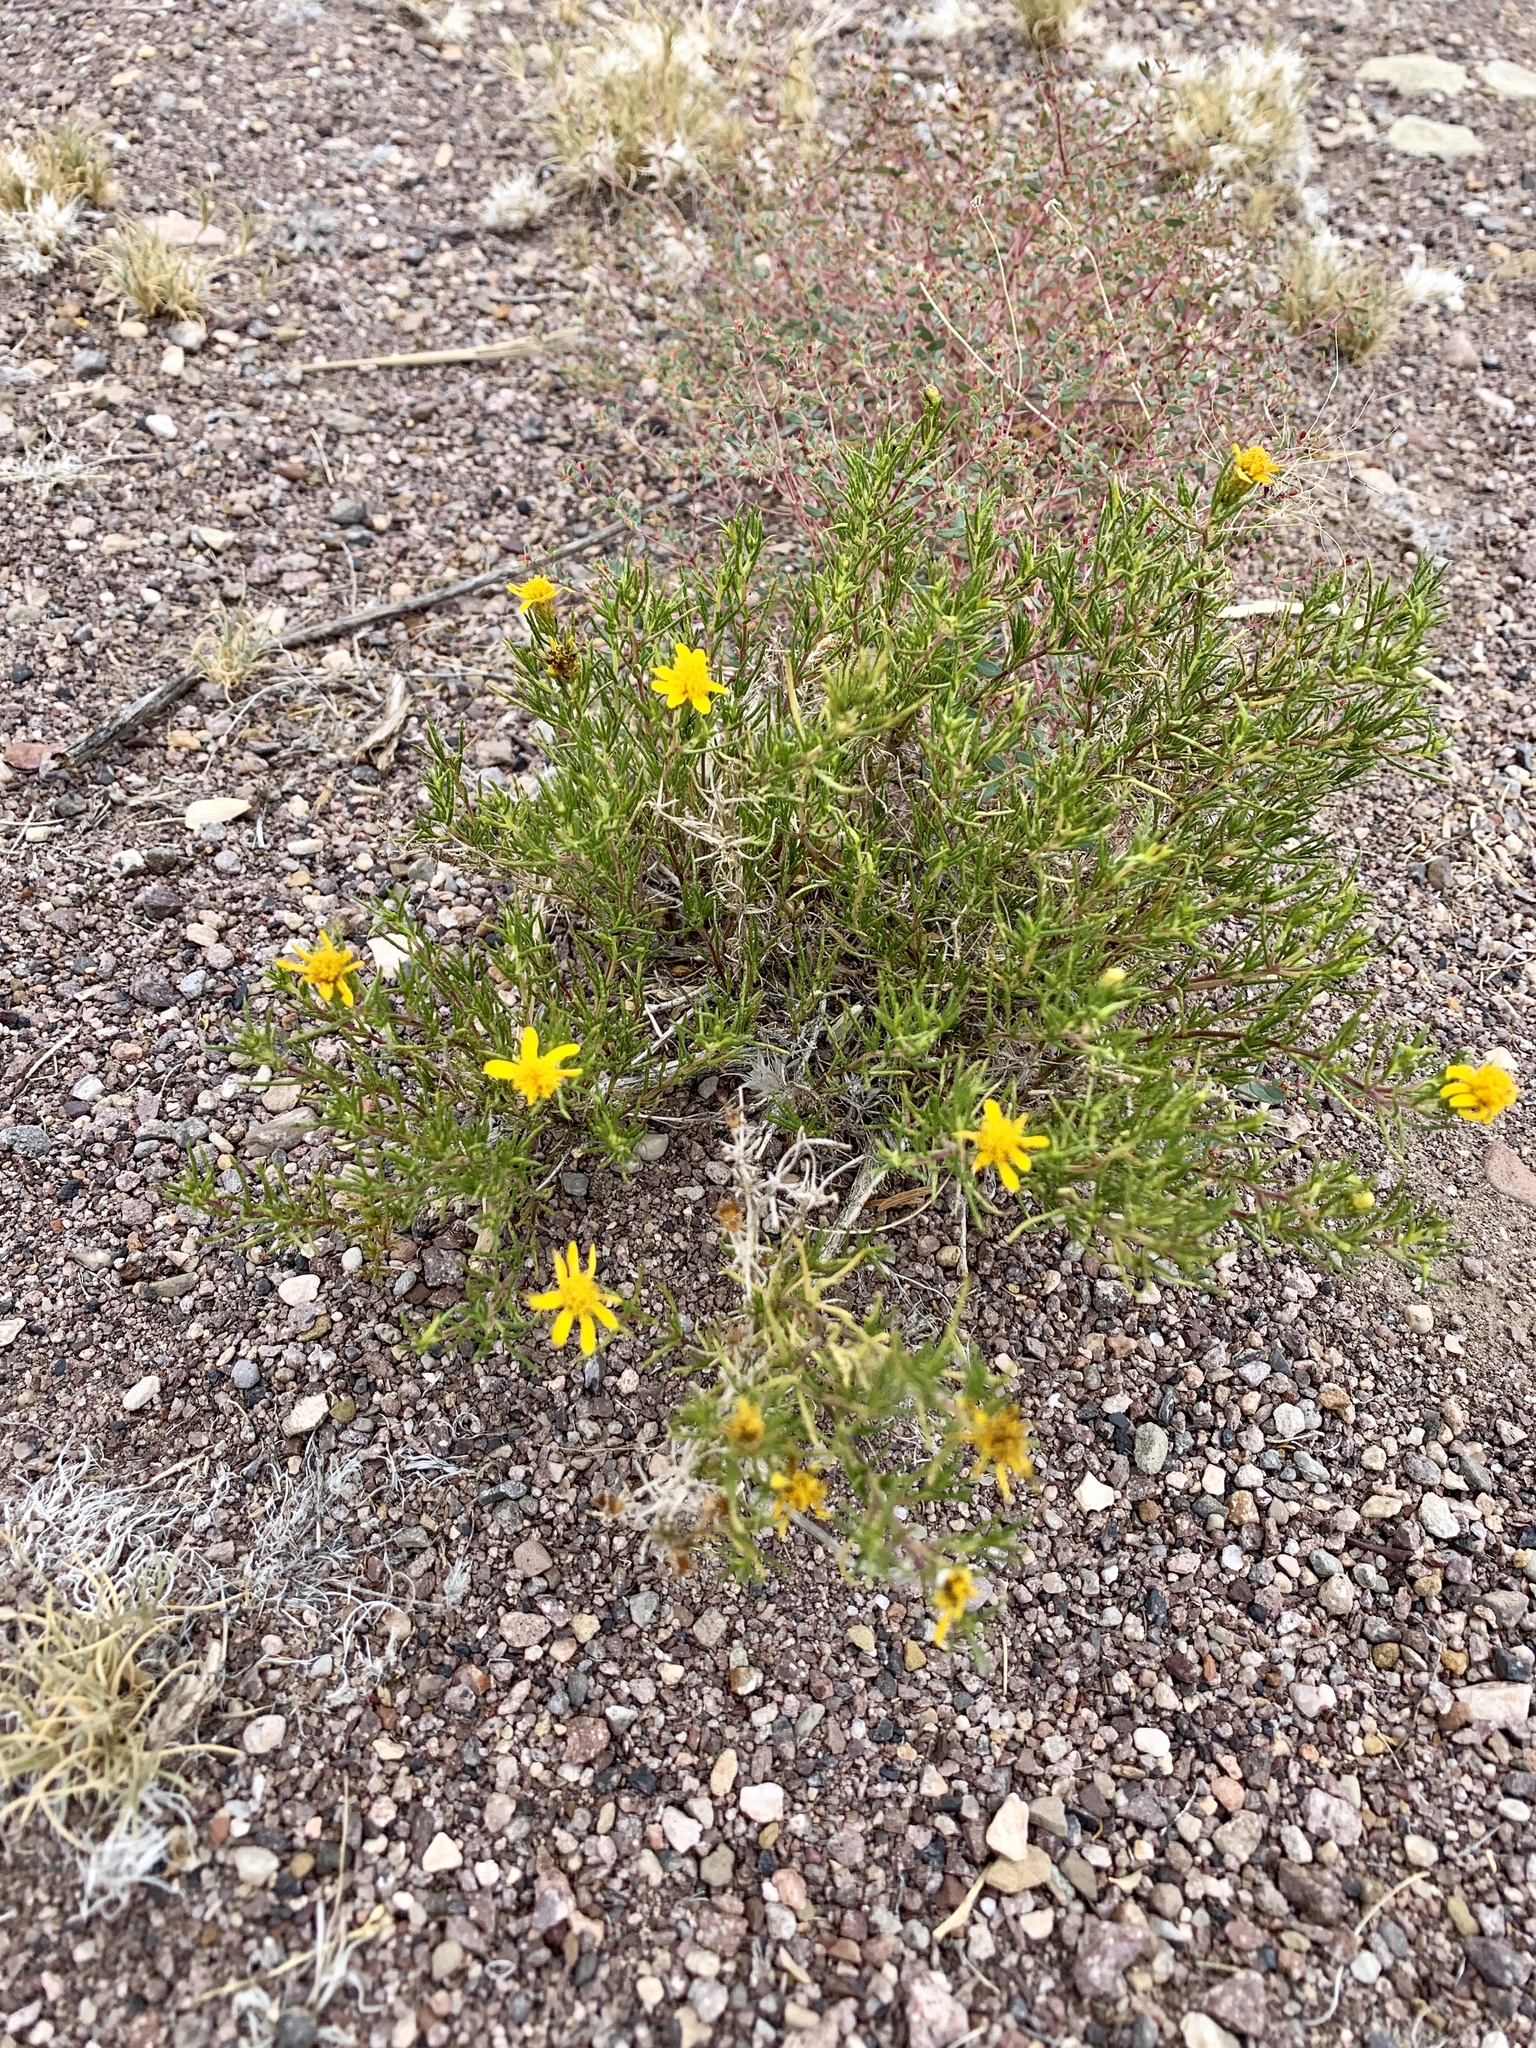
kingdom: Plantae
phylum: Tracheophyta
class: Magnoliopsida
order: Asterales
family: Asteraceae
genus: Thymophylla
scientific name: Thymophylla acerosa
